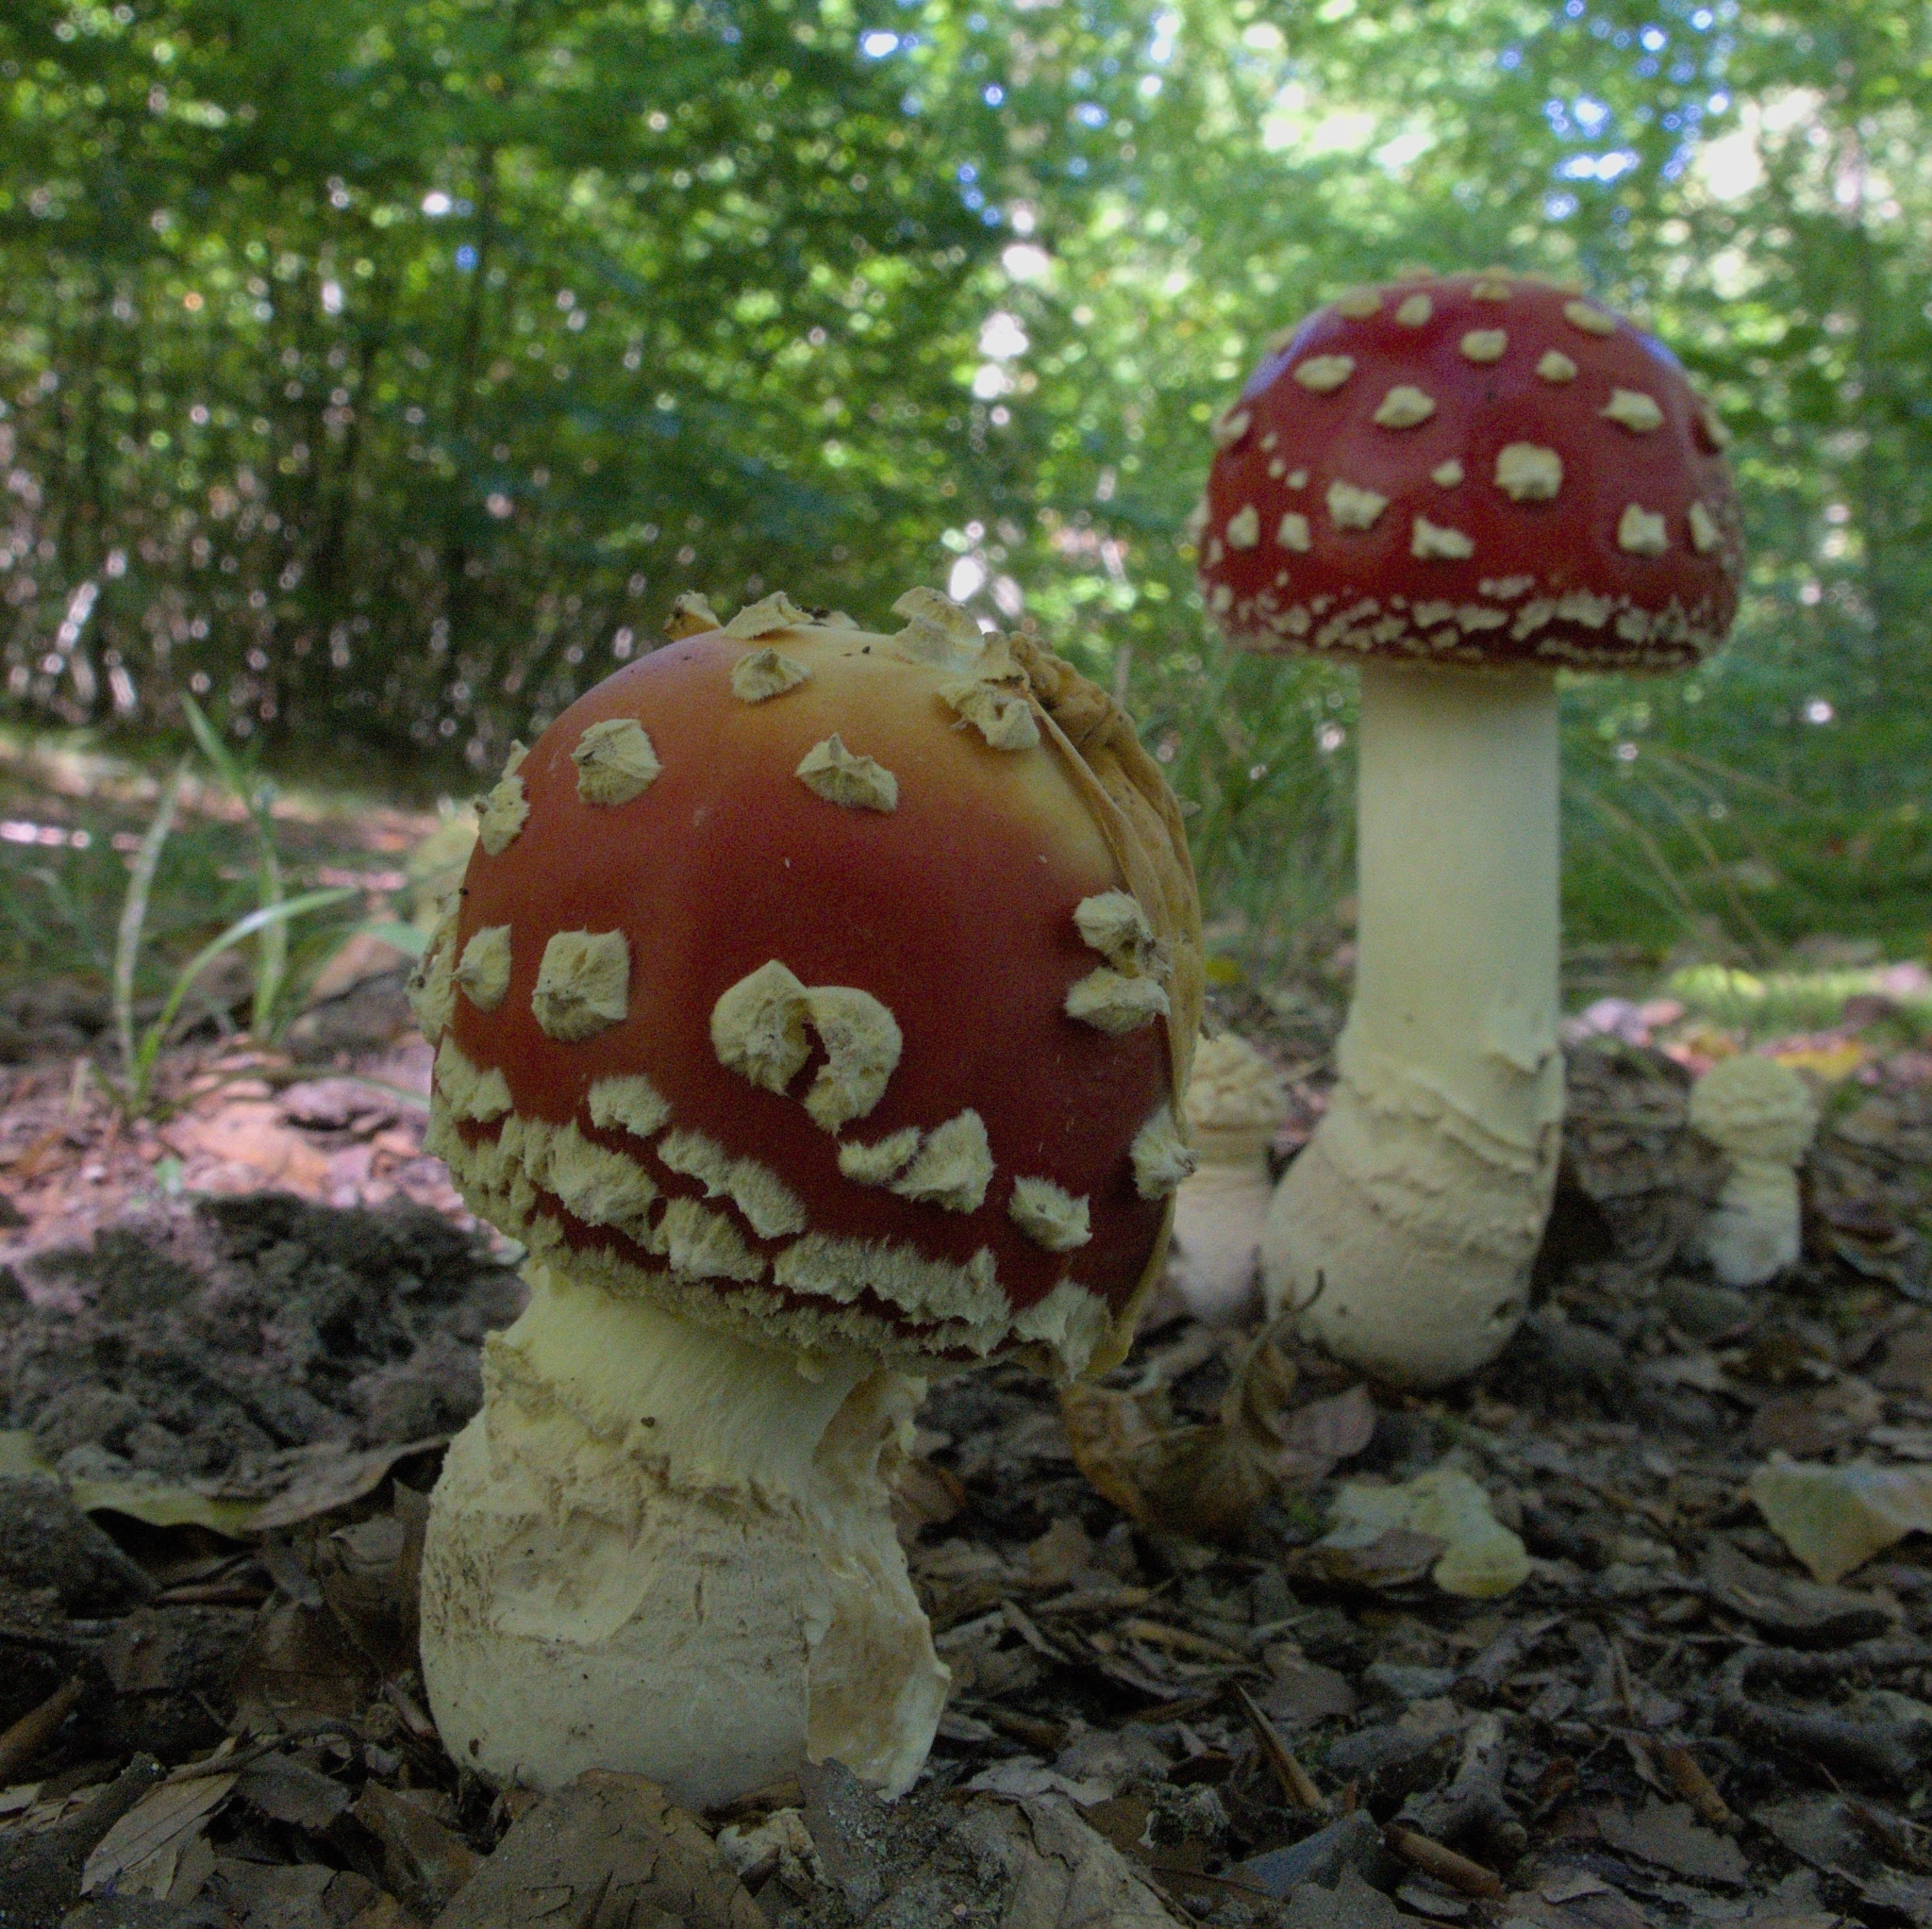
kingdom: Fungi
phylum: Basidiomycota
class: Agaricomycetes
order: Agaricales
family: Amanitaceae
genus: Amanita
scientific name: Amanita muscaria
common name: Fly agaric
